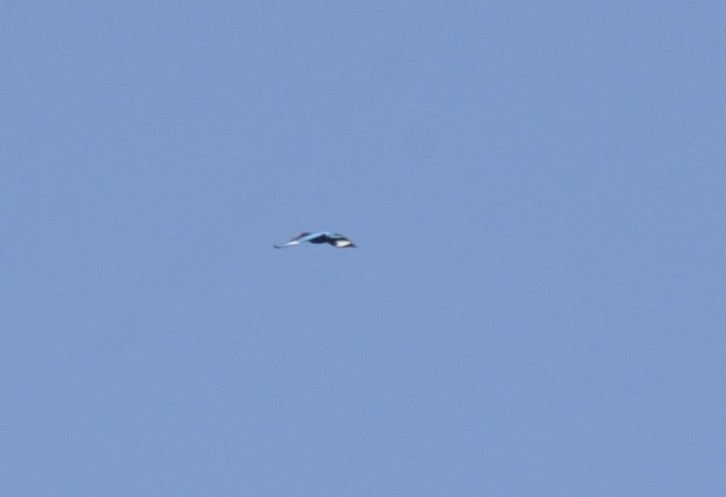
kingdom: Animalia
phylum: Chordata
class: Aves
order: Coraciiformes
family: Alcedinidae
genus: Halcyon
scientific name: Halcyon smyrnensis
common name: White-throated kingfisher
